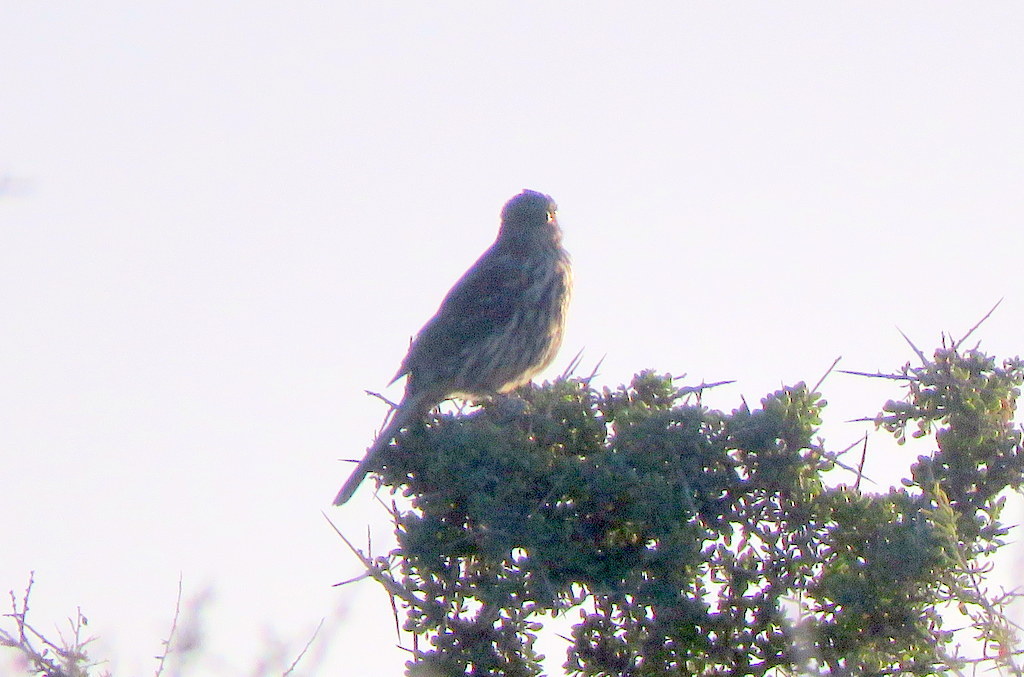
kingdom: Animalia
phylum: Chordata
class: Aves
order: Passeriformes
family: Cotingidae
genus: Phytotoma
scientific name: Phytotoma rutila
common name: White-tipped plantcutter
